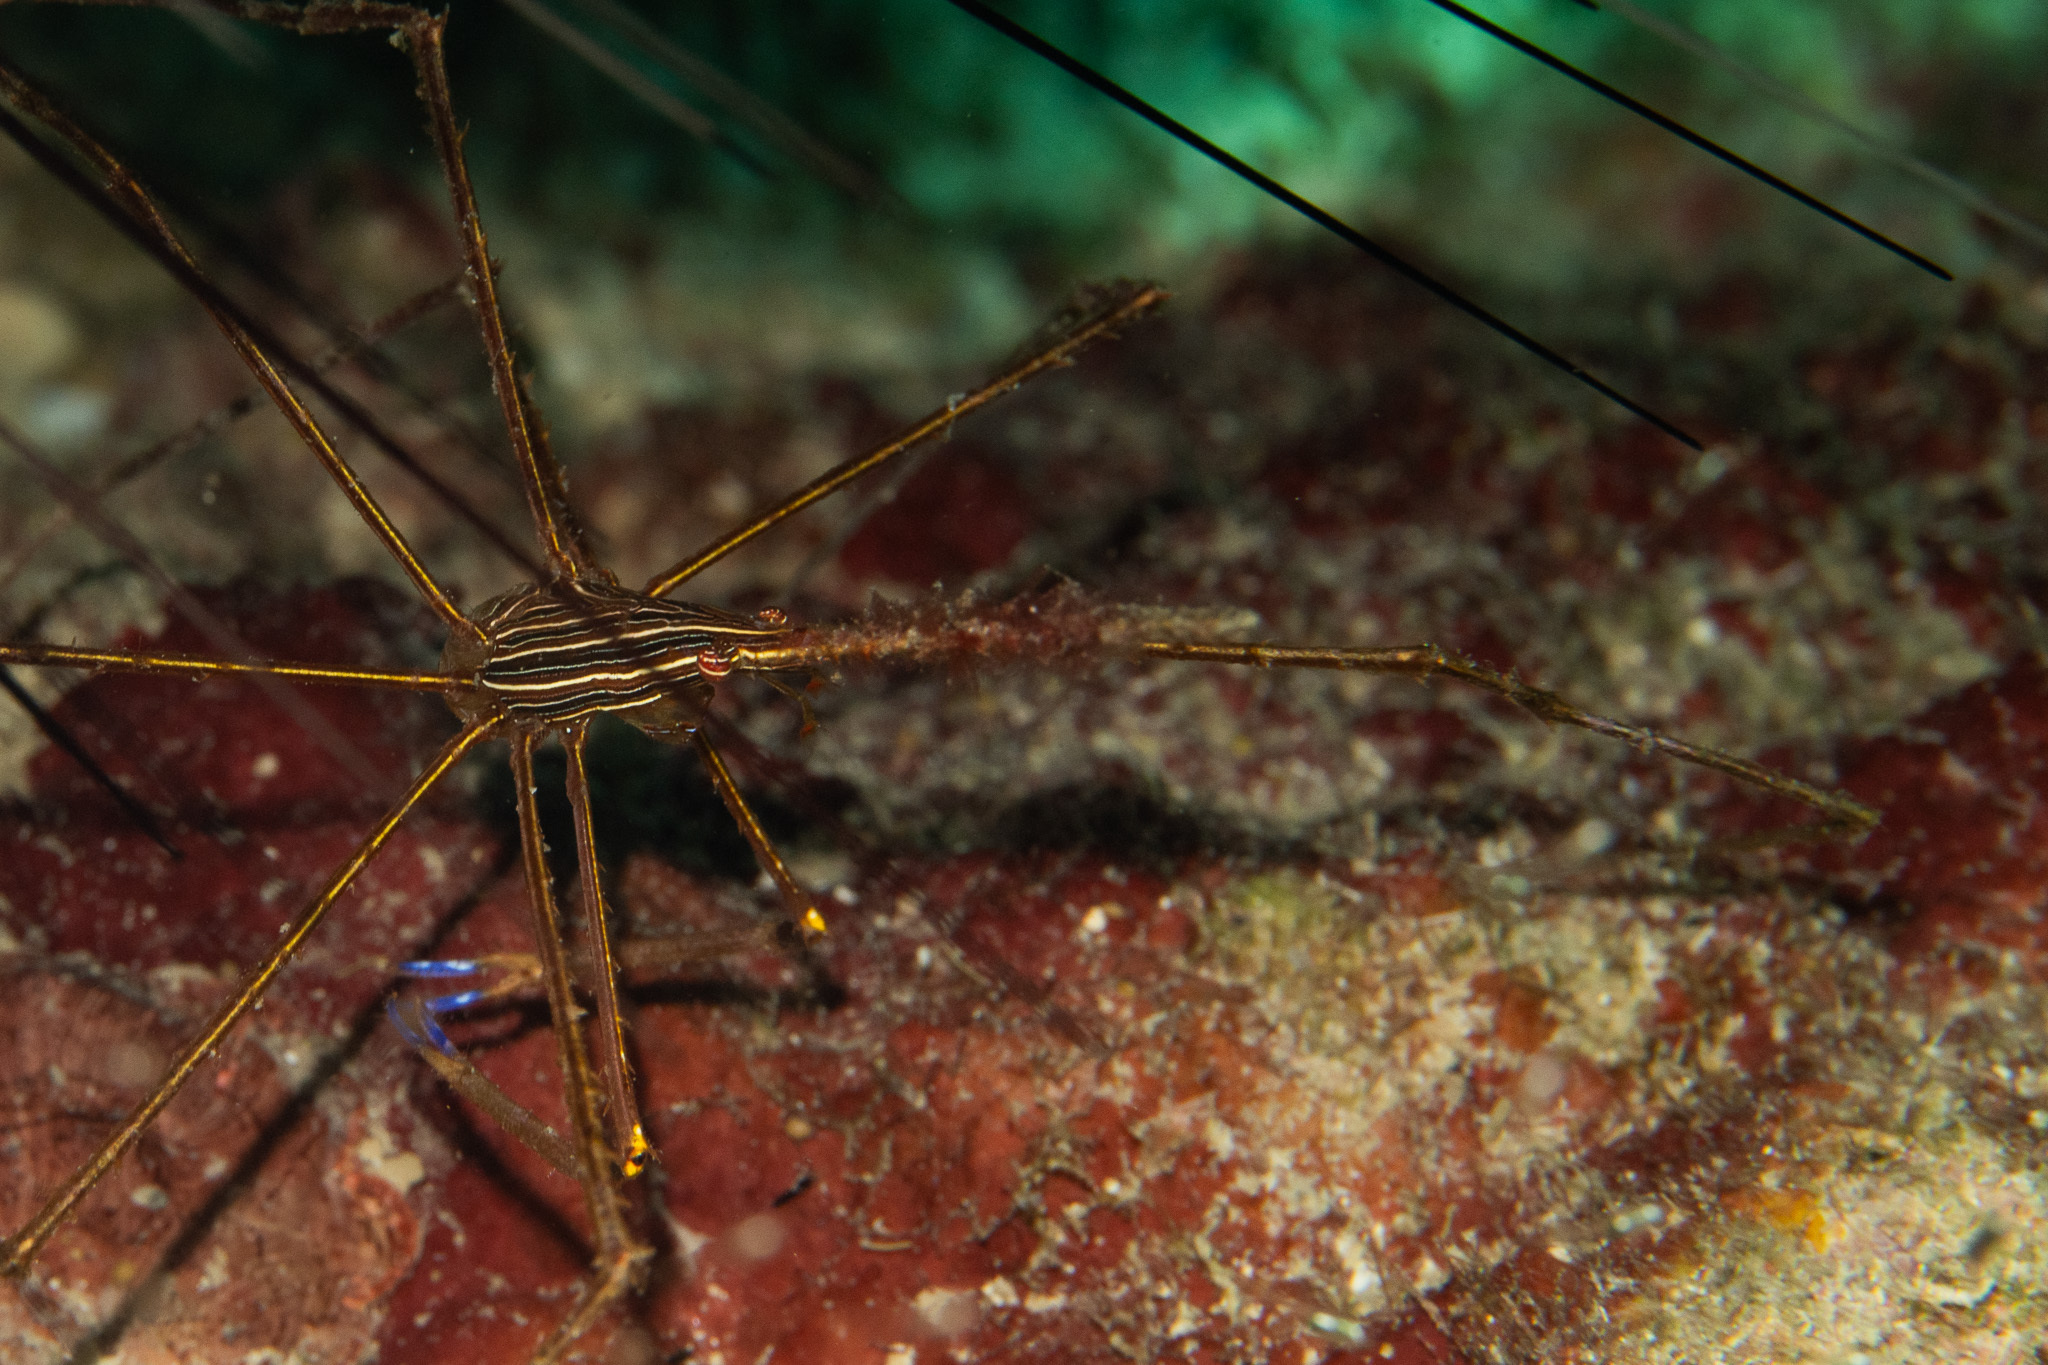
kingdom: Animalia
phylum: Arthropoda
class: Malacostraca
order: Decapoda
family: Inachoididae
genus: Stenorhynchus
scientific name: Stenorhynchus seticornis
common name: Arrow crab
